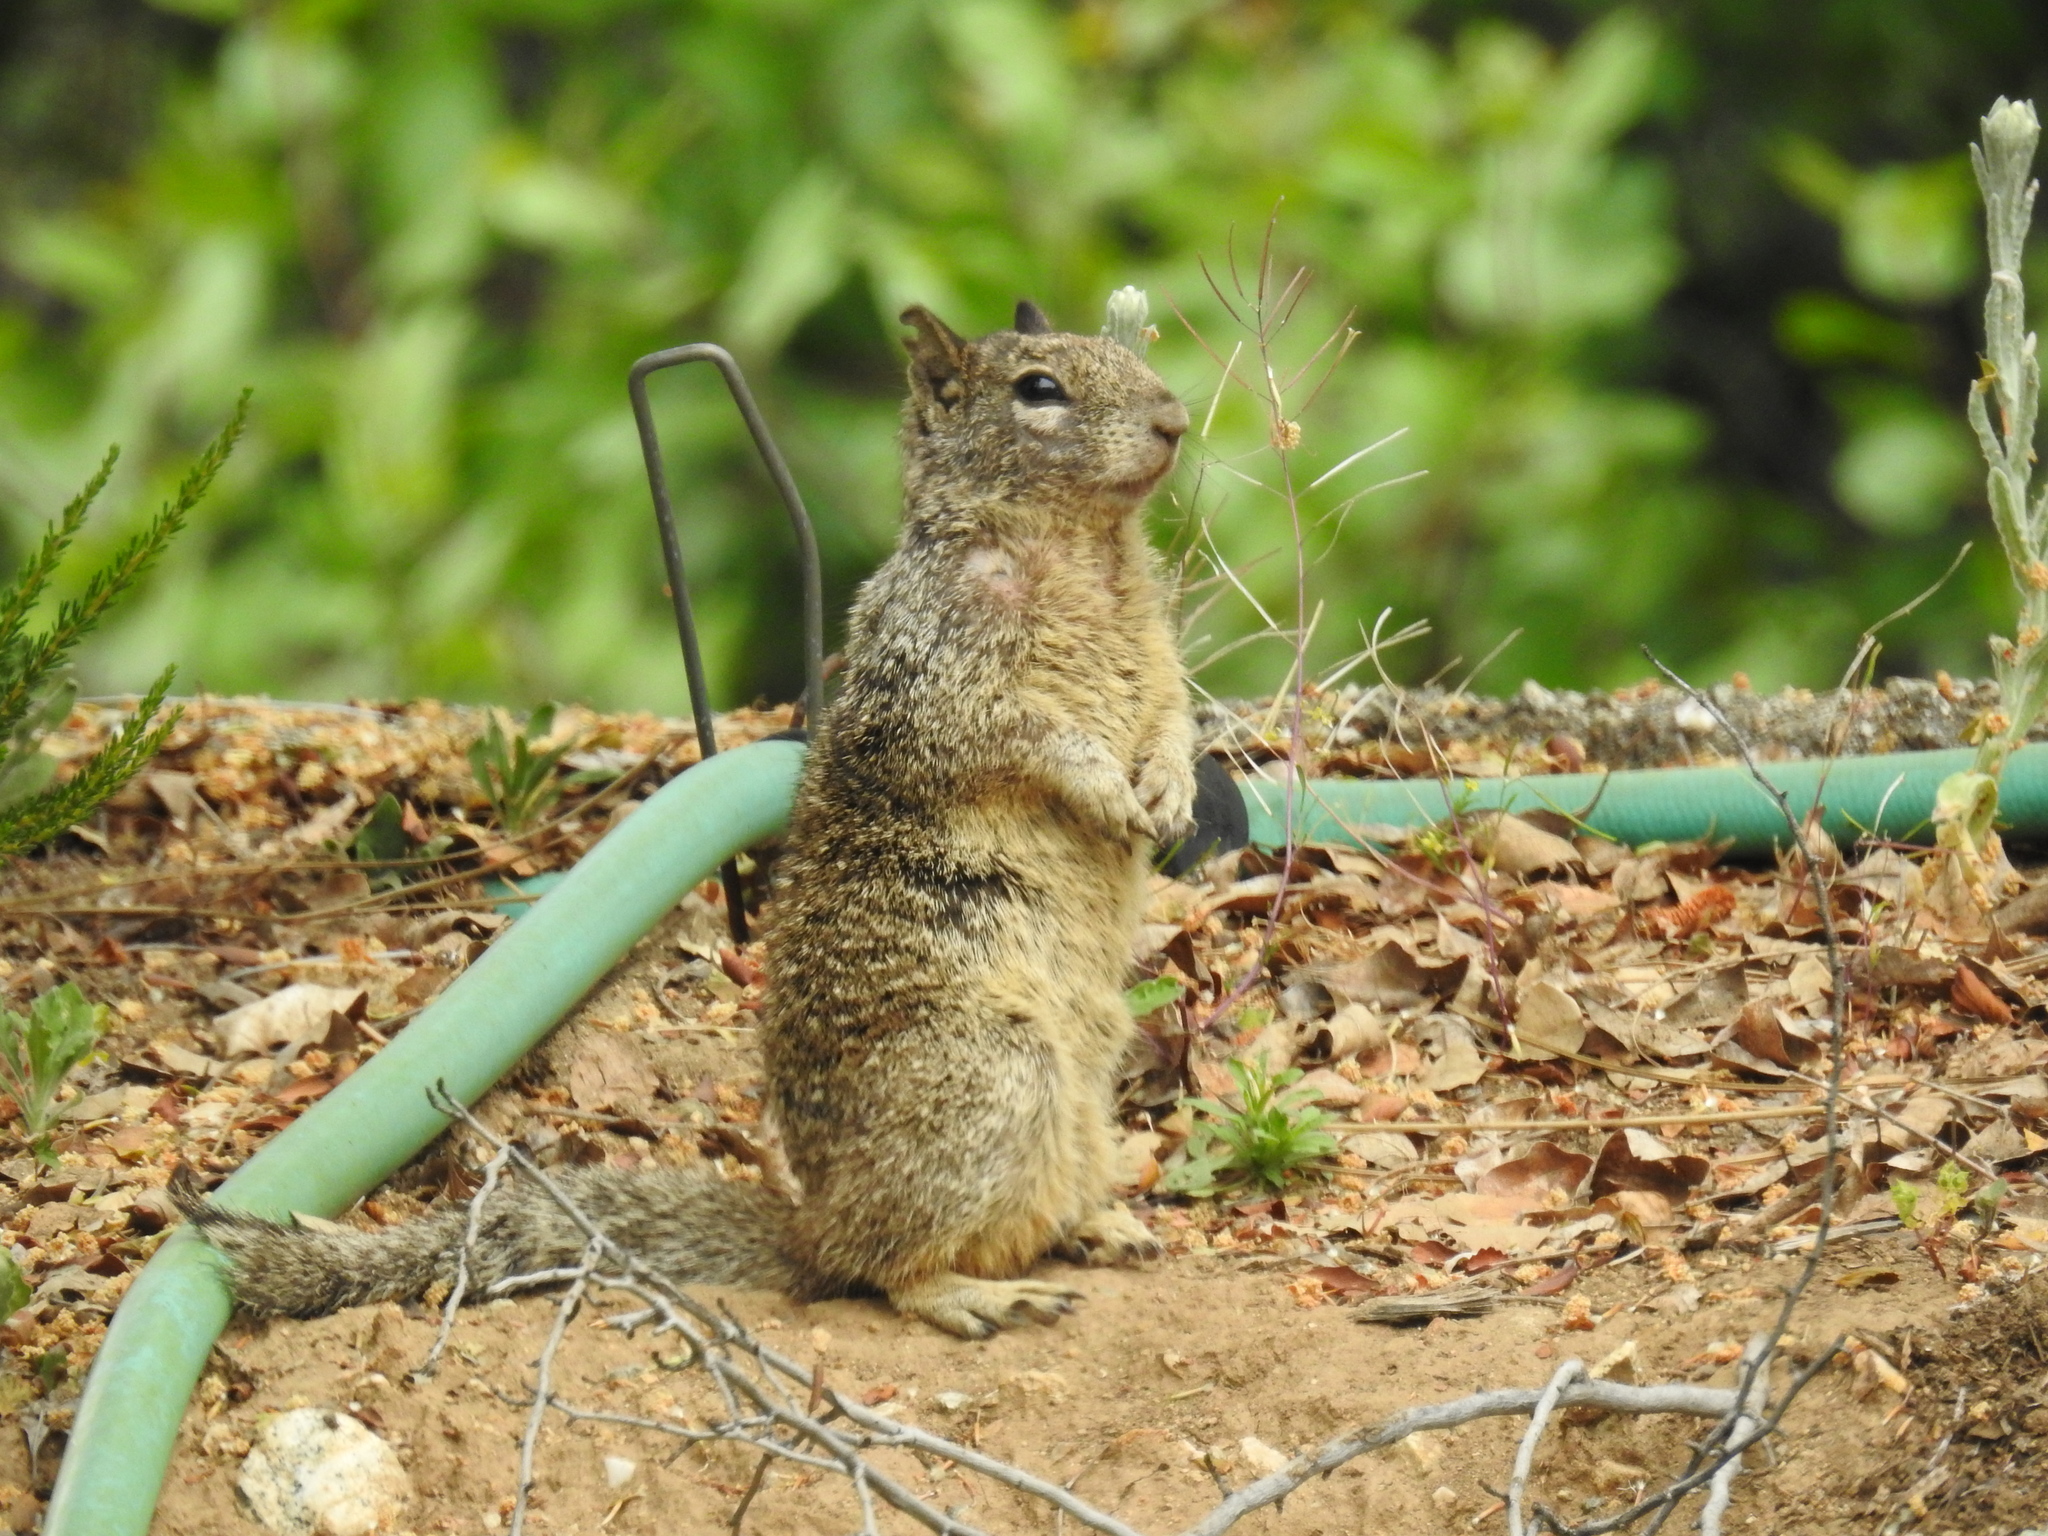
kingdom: Animalia
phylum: Chordata
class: Mammalia
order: Rodentia
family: Sciuridae
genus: Otospermophilus
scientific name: Otospermophilus beecheyi
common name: California ground squirrel
